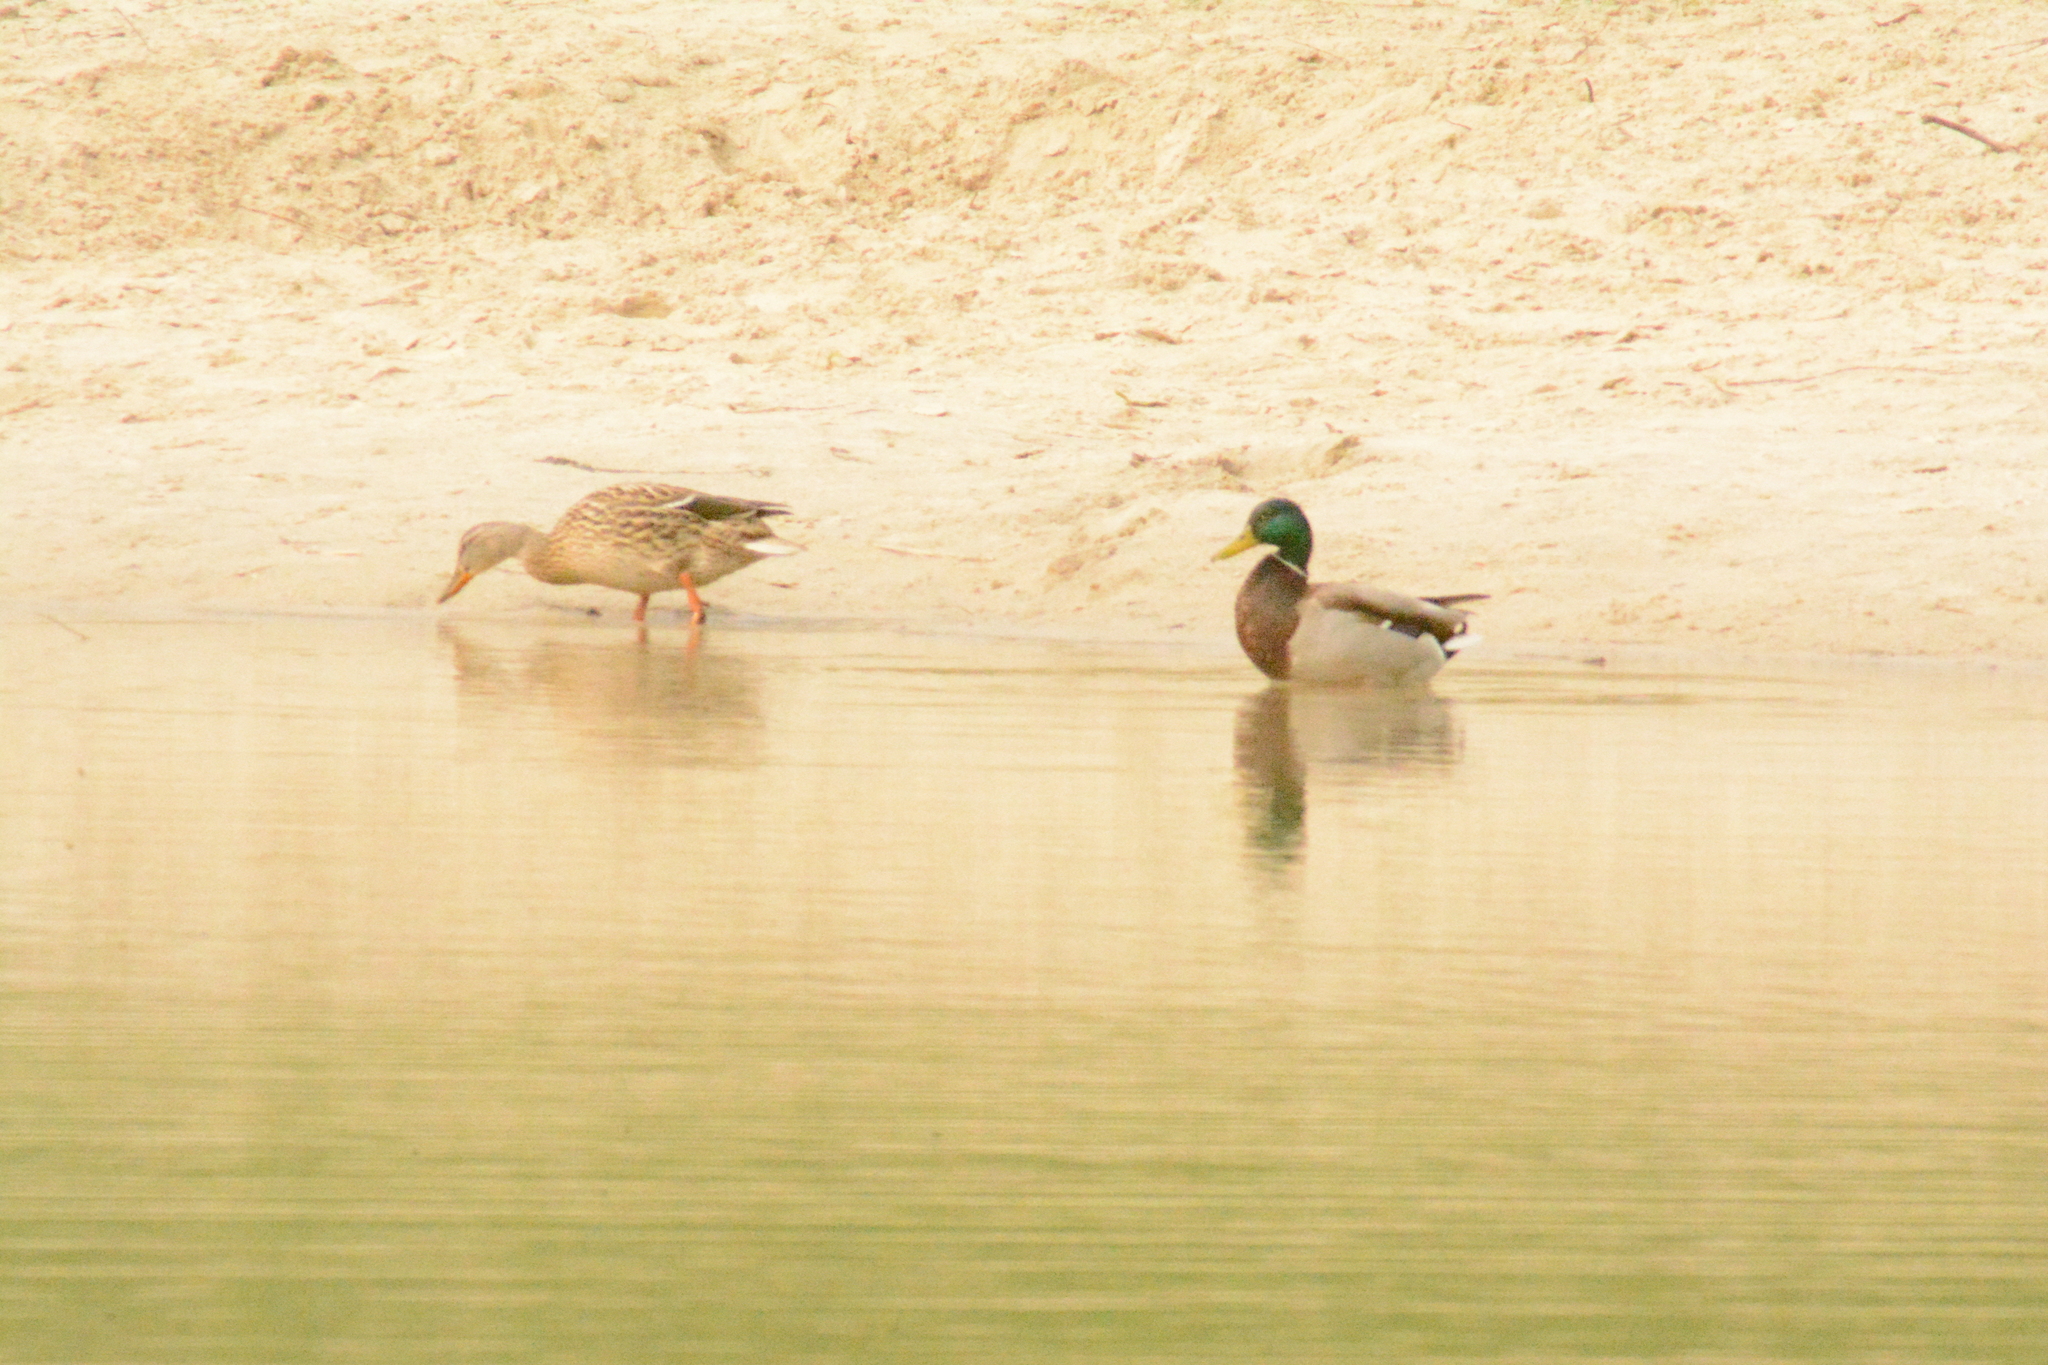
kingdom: Animalia
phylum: Chordata
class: Aves
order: Anseriformes
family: Anatidae
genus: Anas
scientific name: Anas platyrhynchos
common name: Mallard
